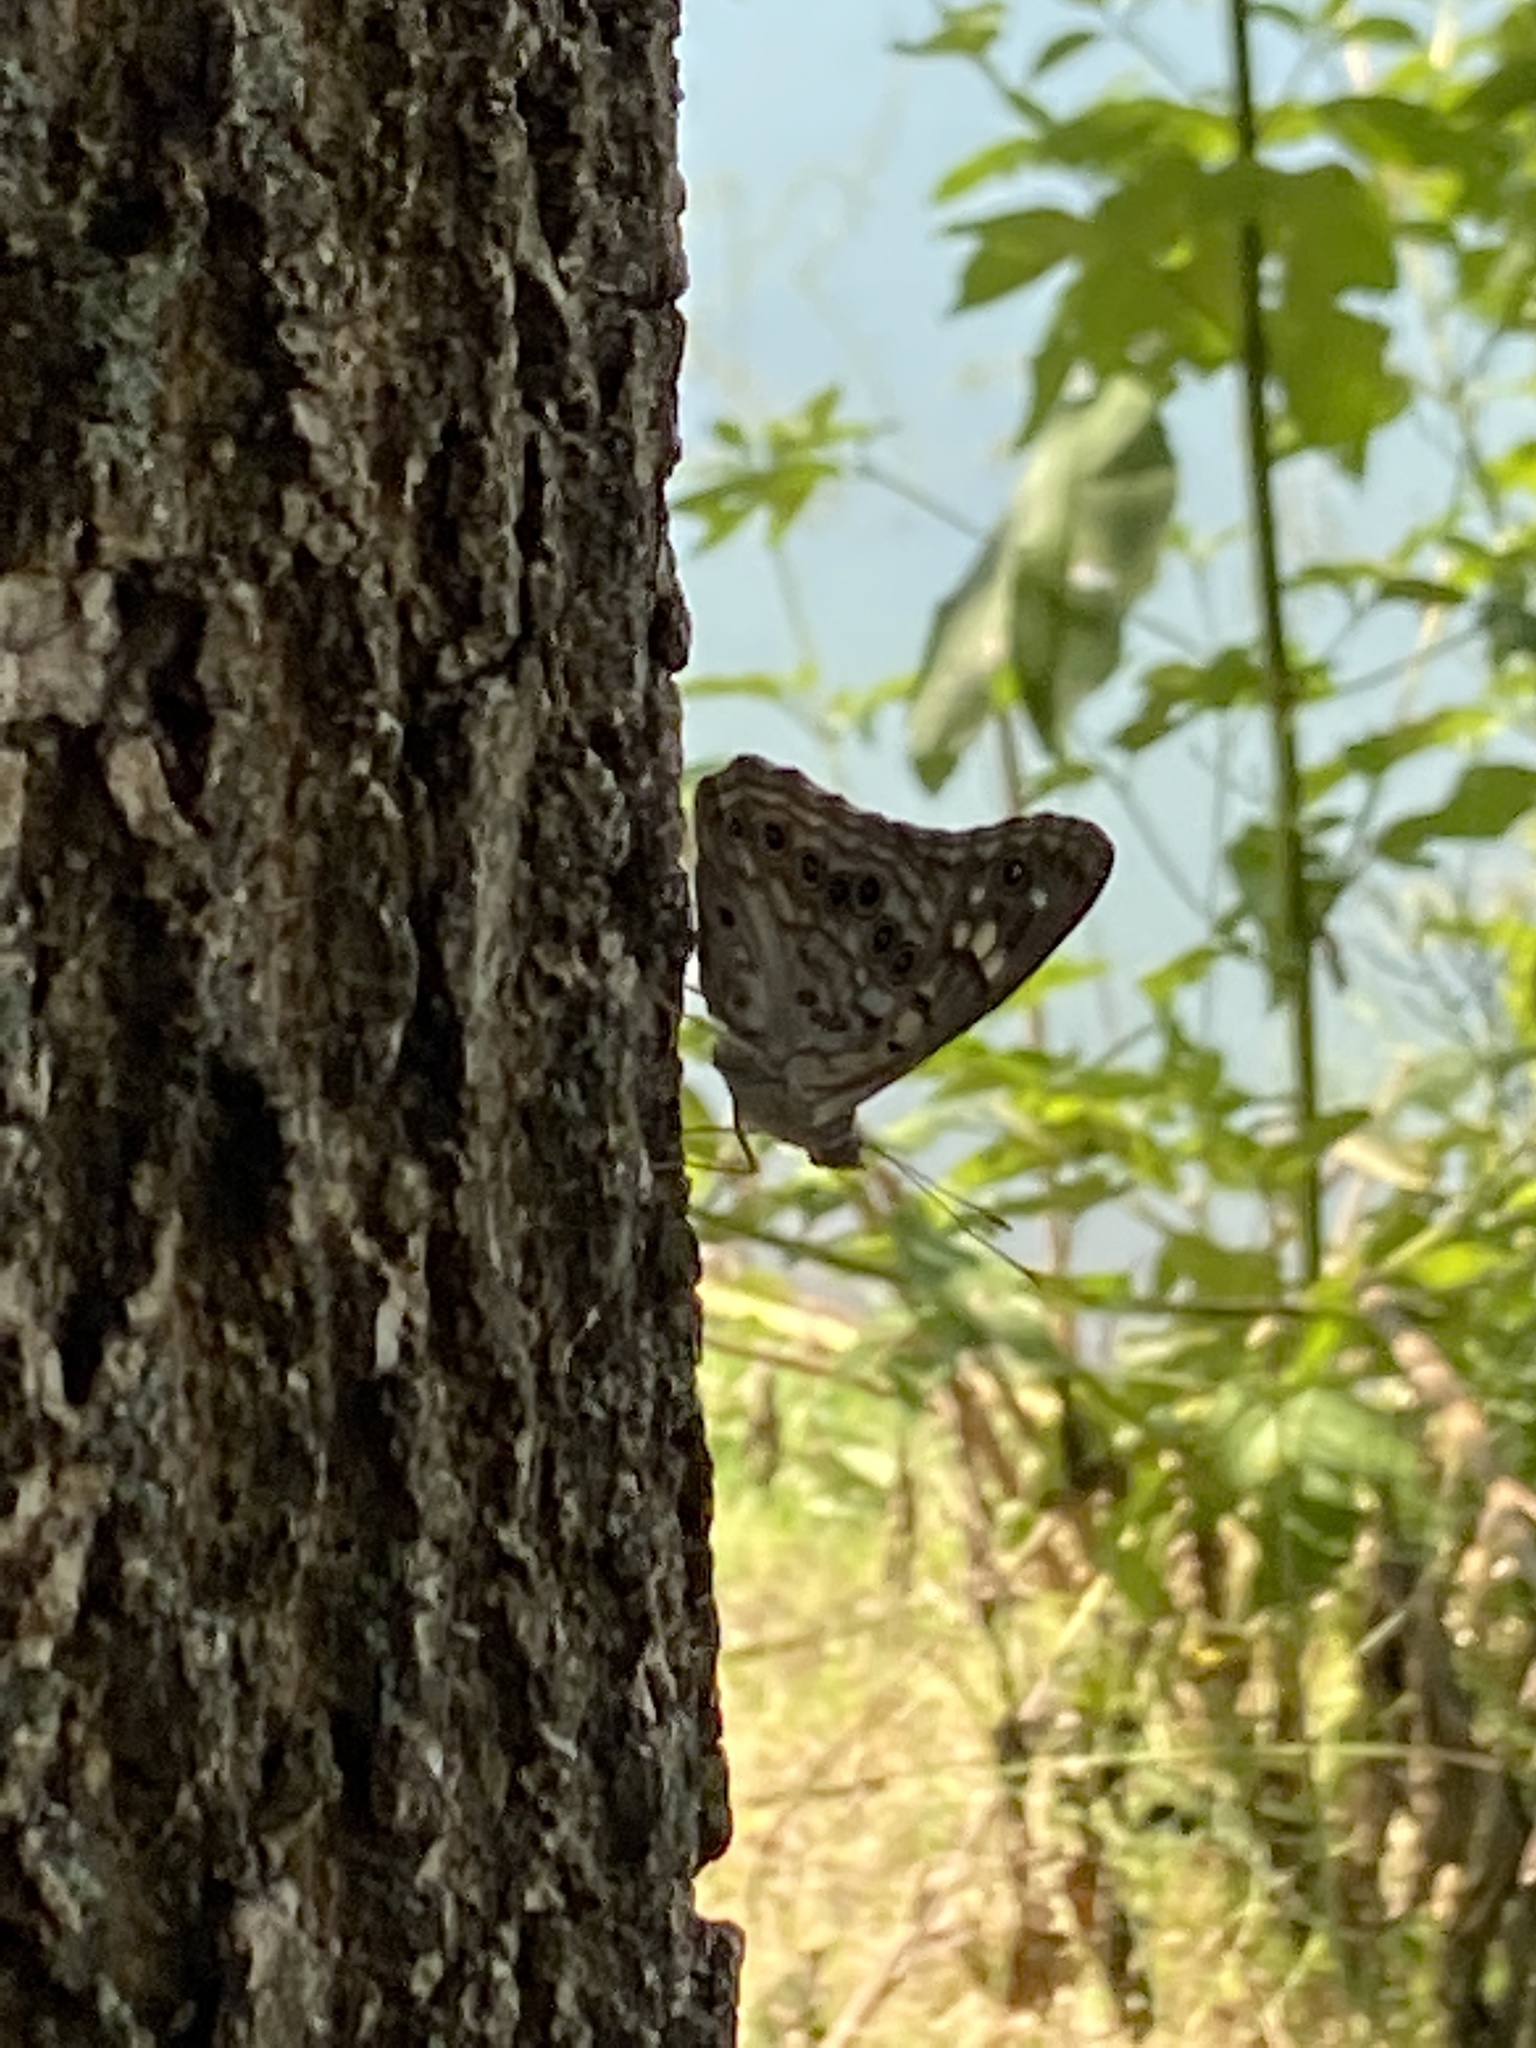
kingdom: Animalia
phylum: Arthropoda
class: Insecta
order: Lepidoptera
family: Nymphalidae
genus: Asterocampa
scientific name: Asterocampa celtis
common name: Hackberry emperor
